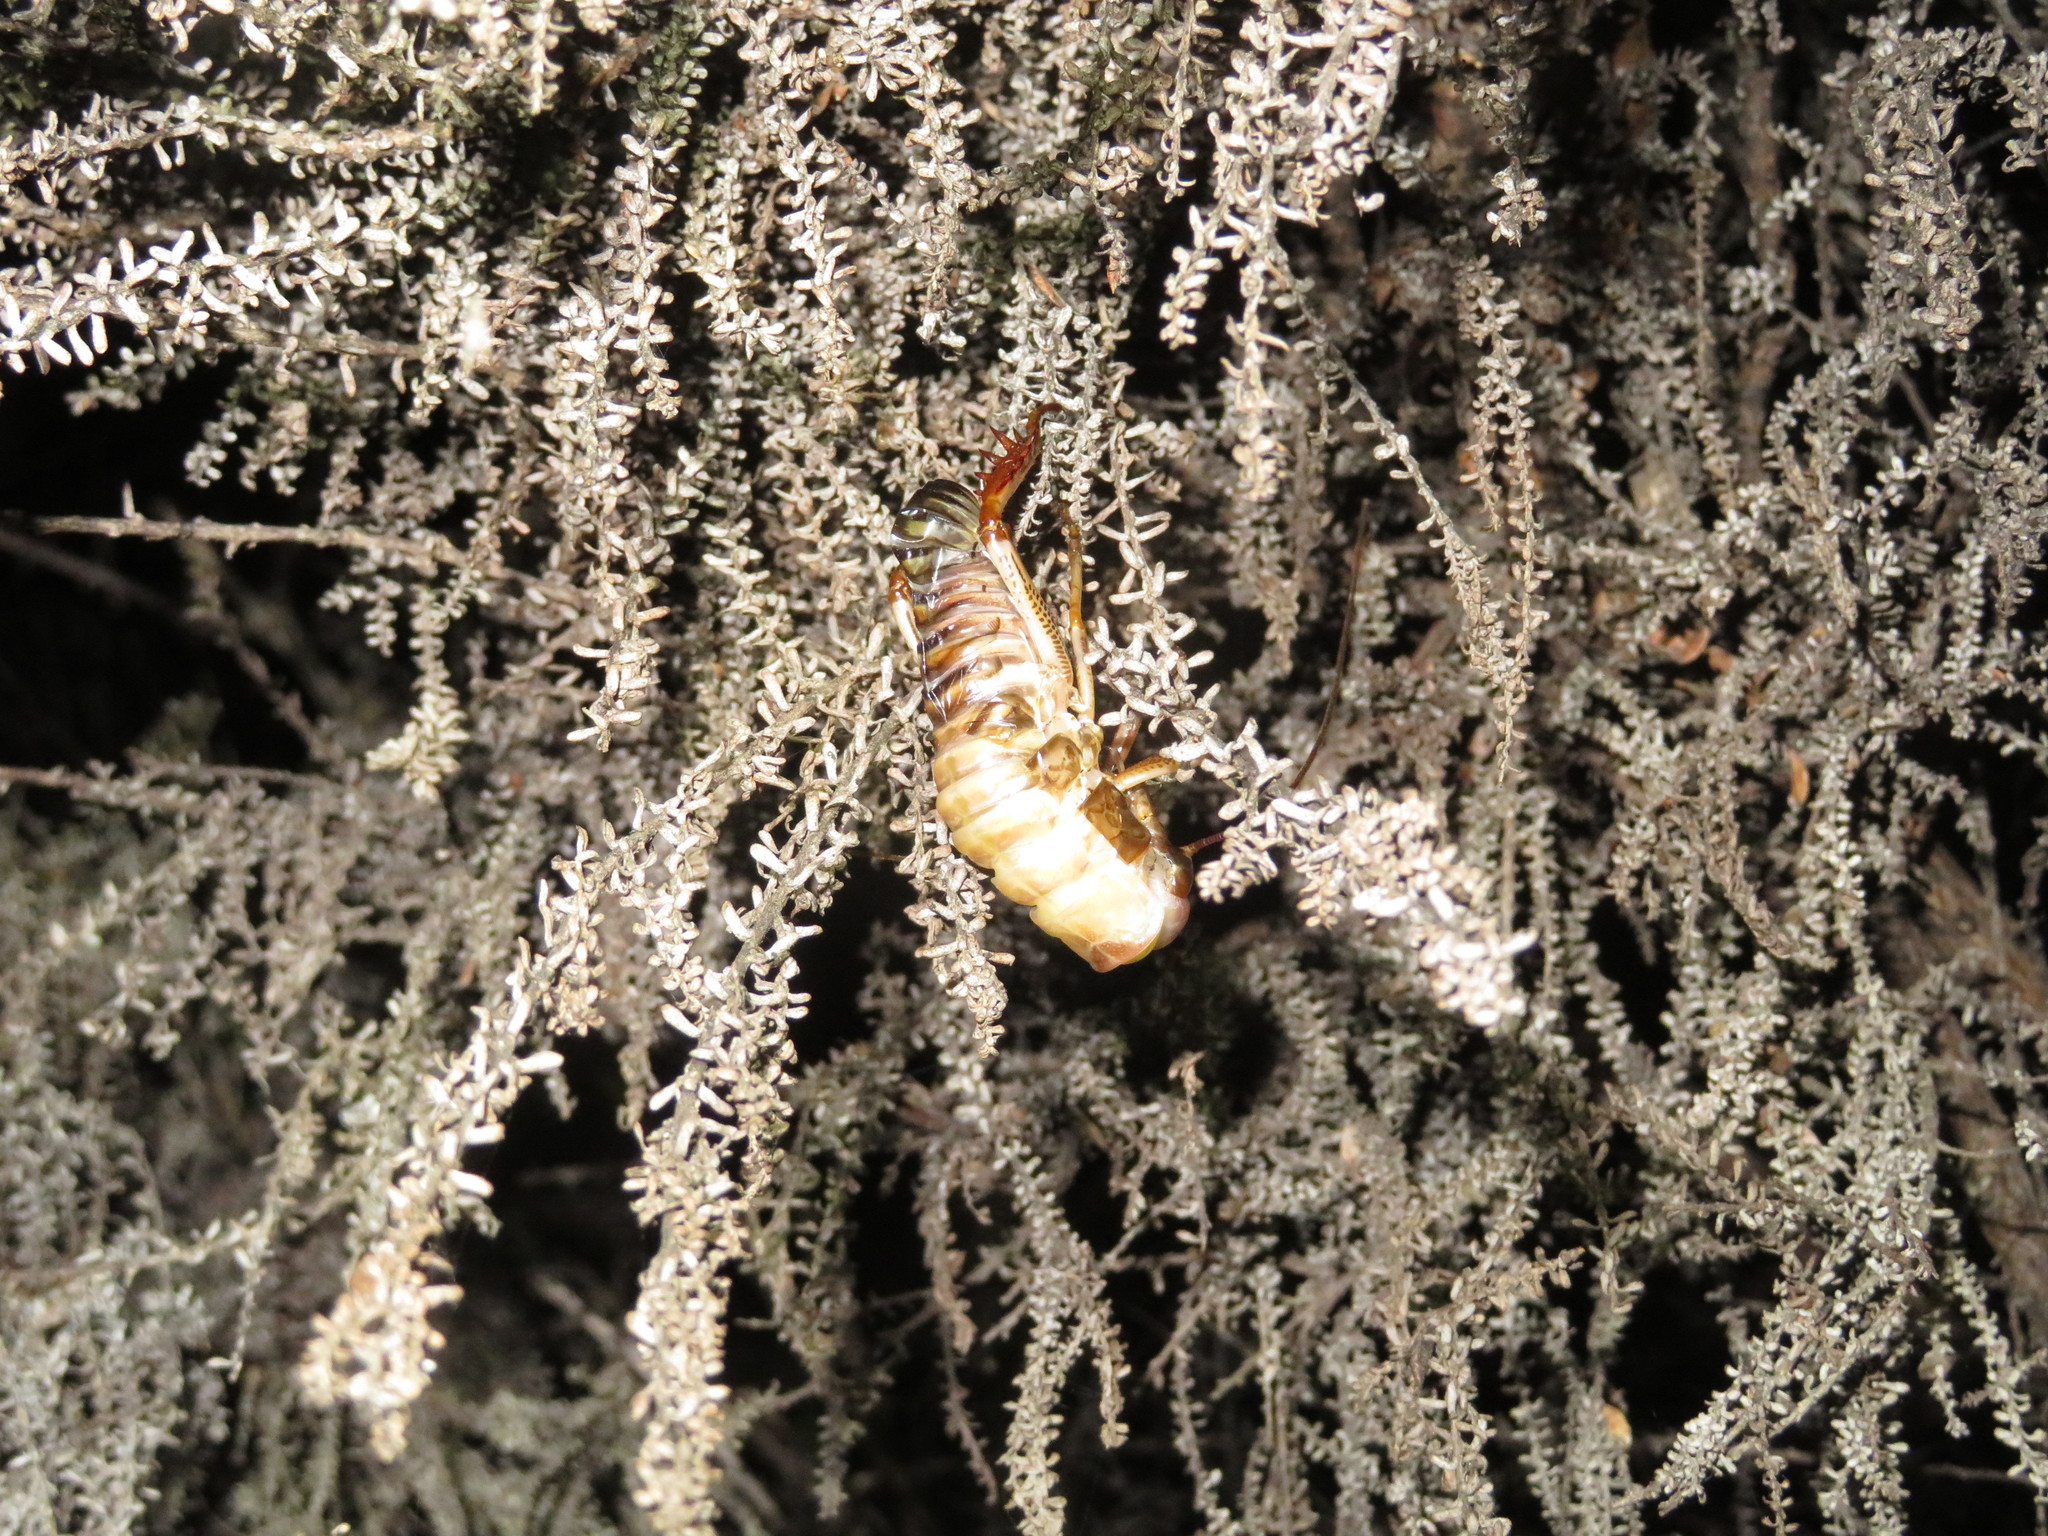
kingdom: Animalia
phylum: Arthropoda
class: Insecta
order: Orthoptera
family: Anostostomatidae
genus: Hemideina
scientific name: Hemideina crassidens
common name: Wellington tree weta
